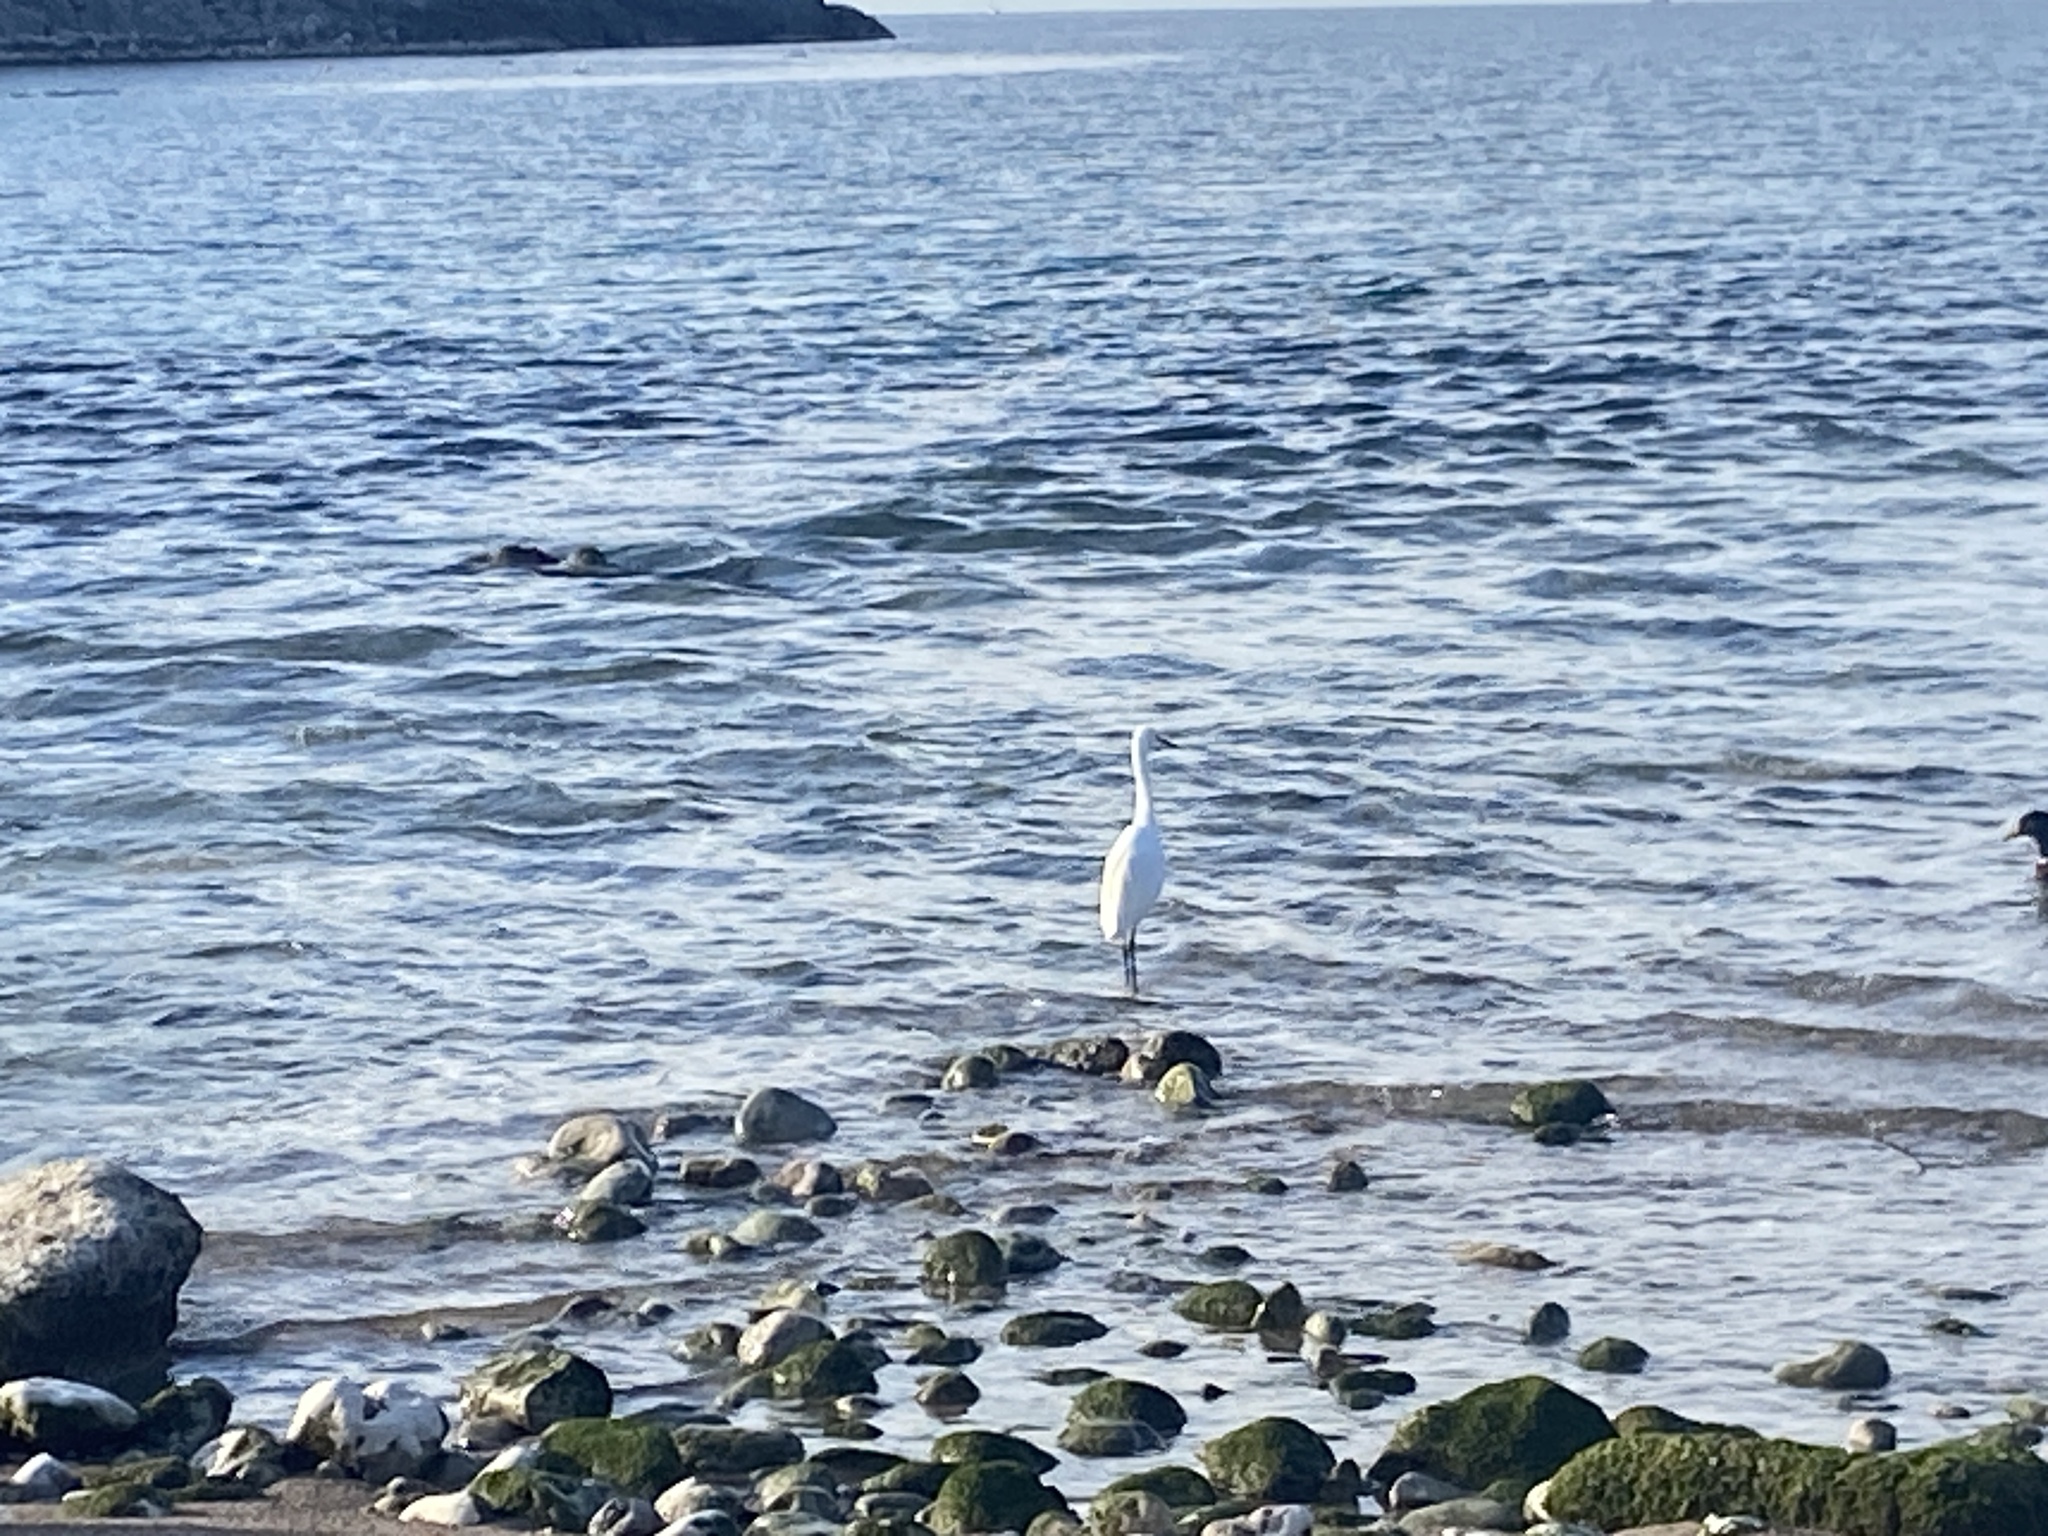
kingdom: Animalia
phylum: Chordata
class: Aves
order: Pelecaniformes
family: Ardeidae
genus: Egretta
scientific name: Egretta garzetta
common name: Little egret
